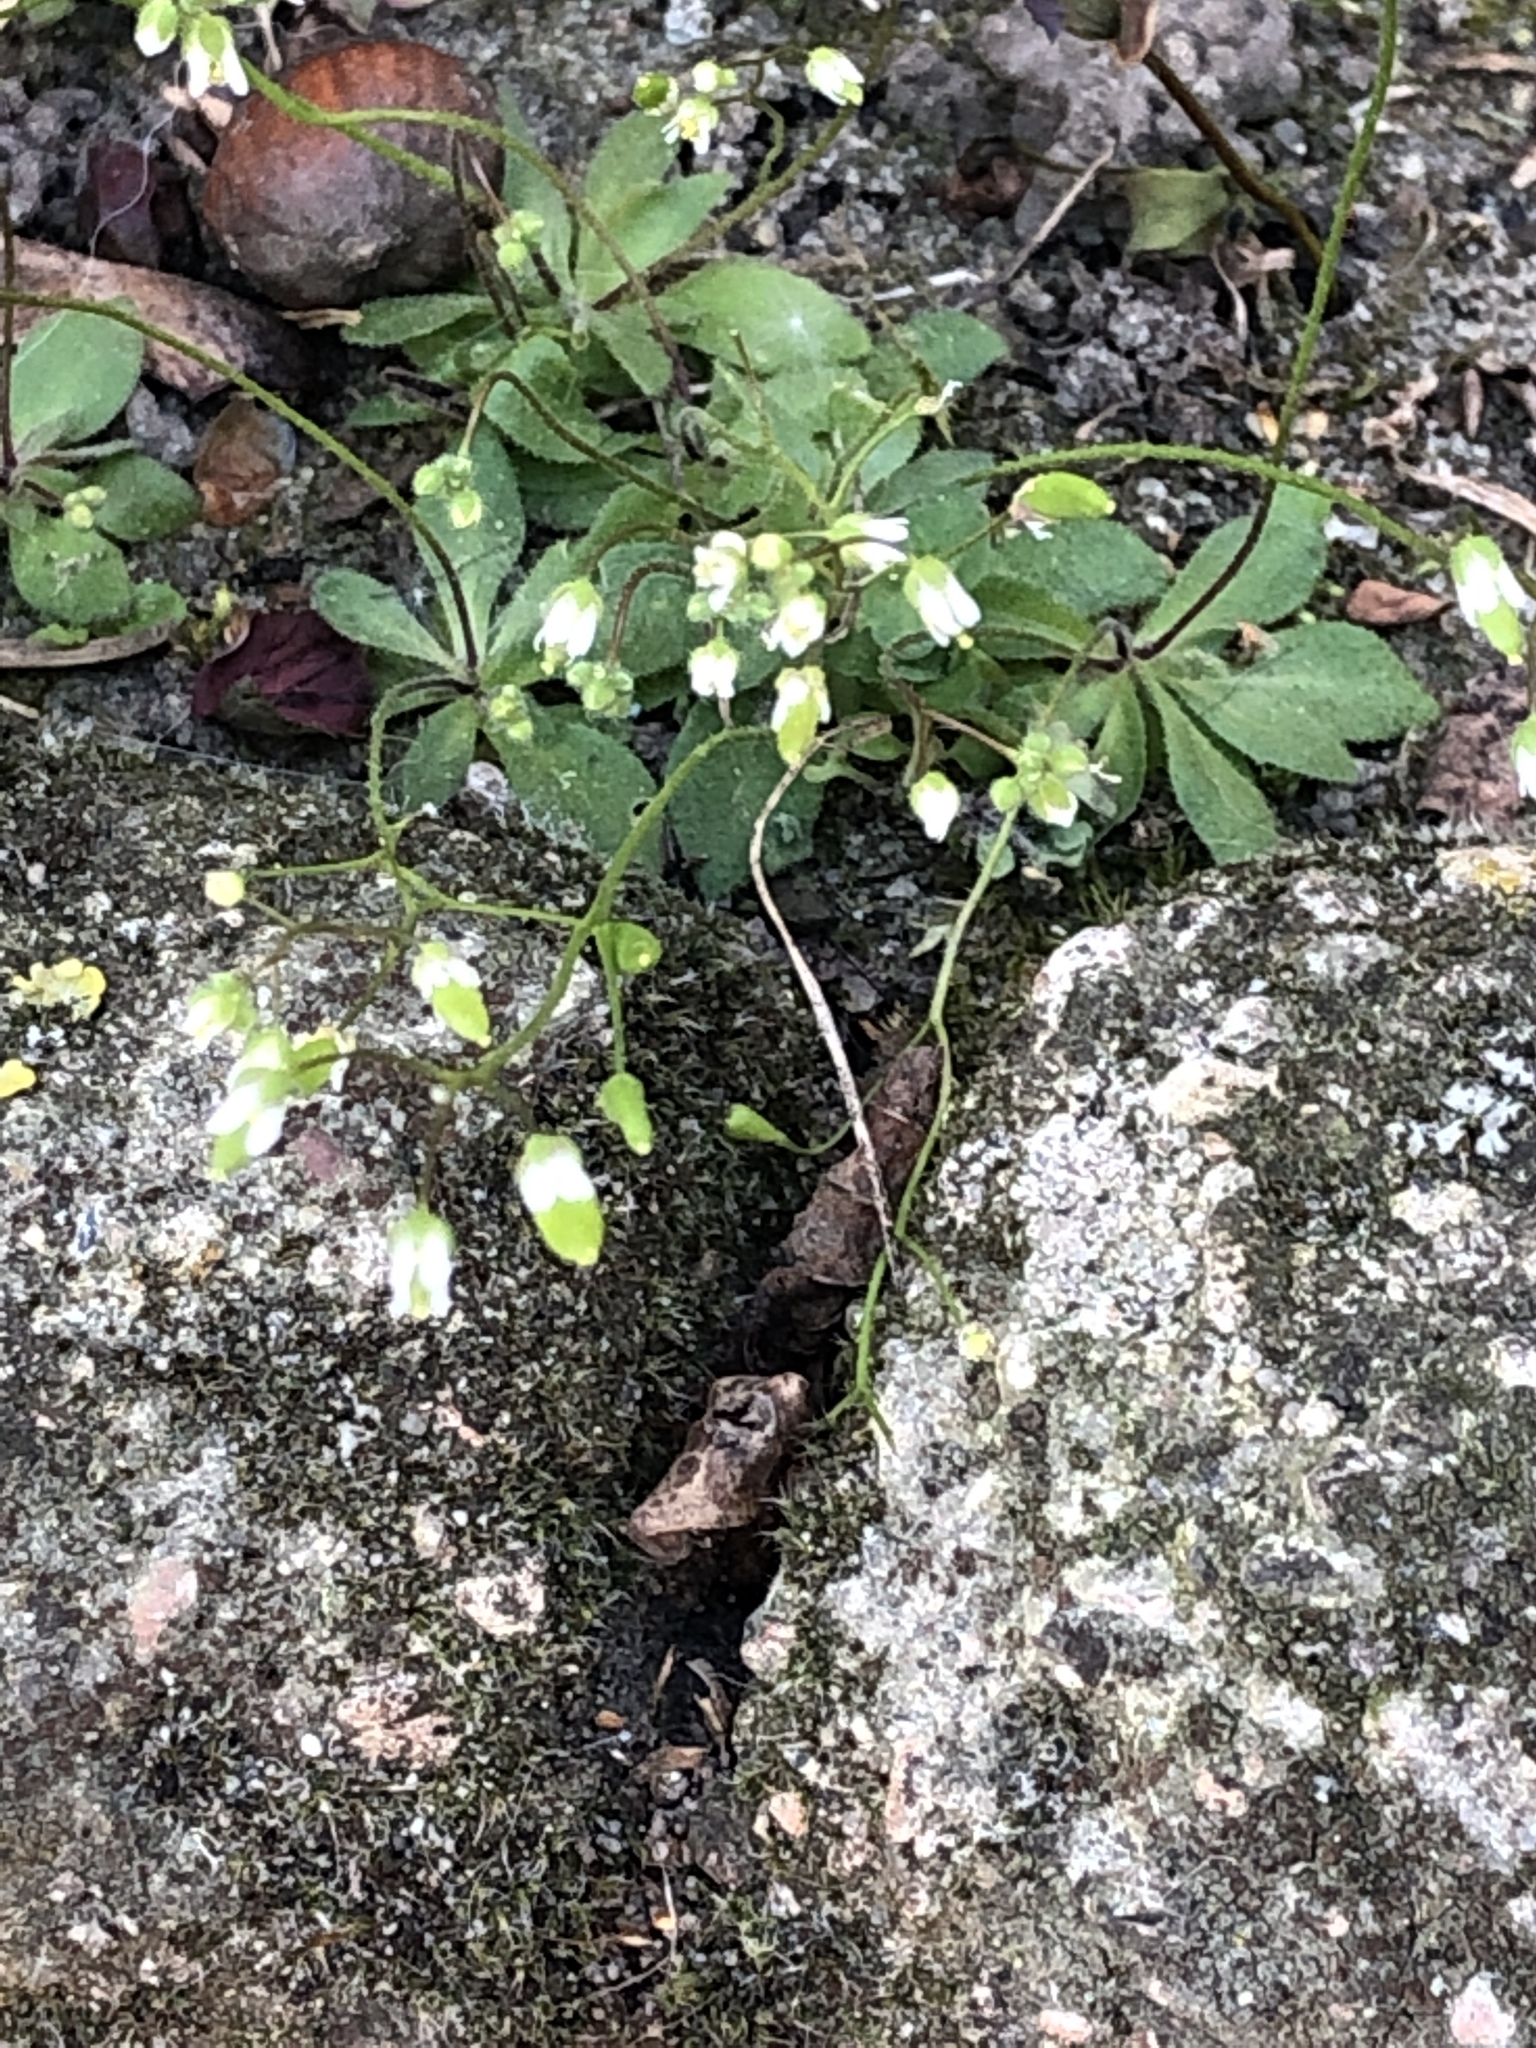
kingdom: Plantae
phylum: Tracheophyta
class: Magnoliopsida
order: Brassicales
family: Brassicaceae
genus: Draba
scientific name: Draba verna
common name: Spring draba
